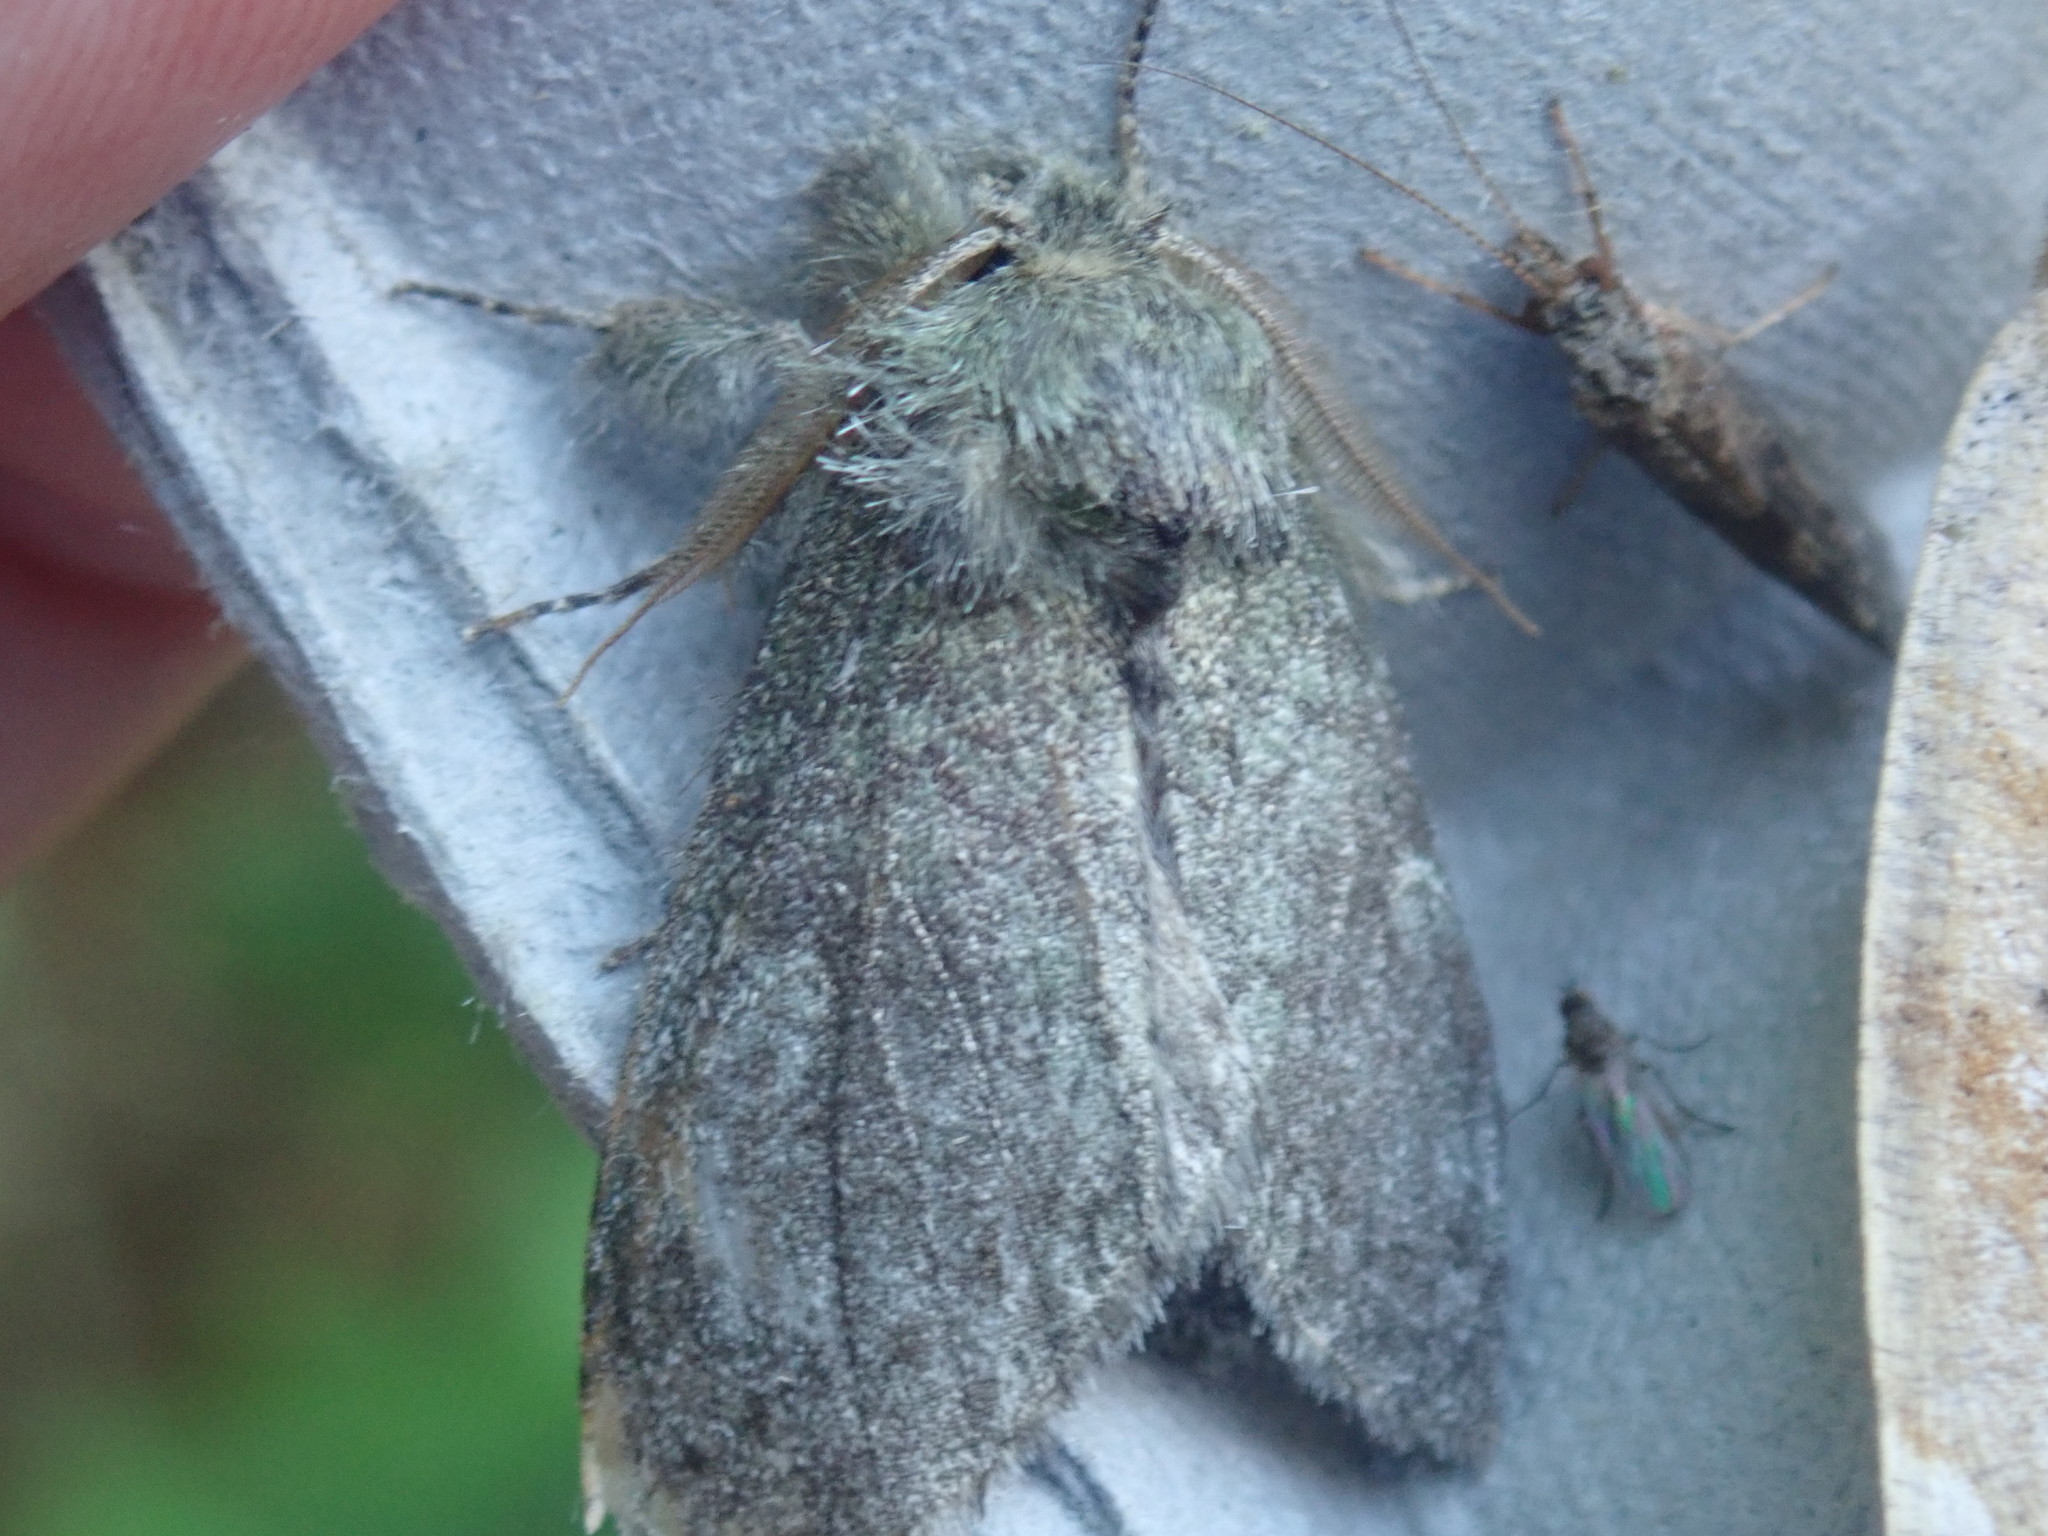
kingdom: Animalia
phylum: Arthropoda
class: Insecta
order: Lepidoptera
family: Notodontidae
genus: Disphragis
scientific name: Disphragis Cecrita guttivitta
